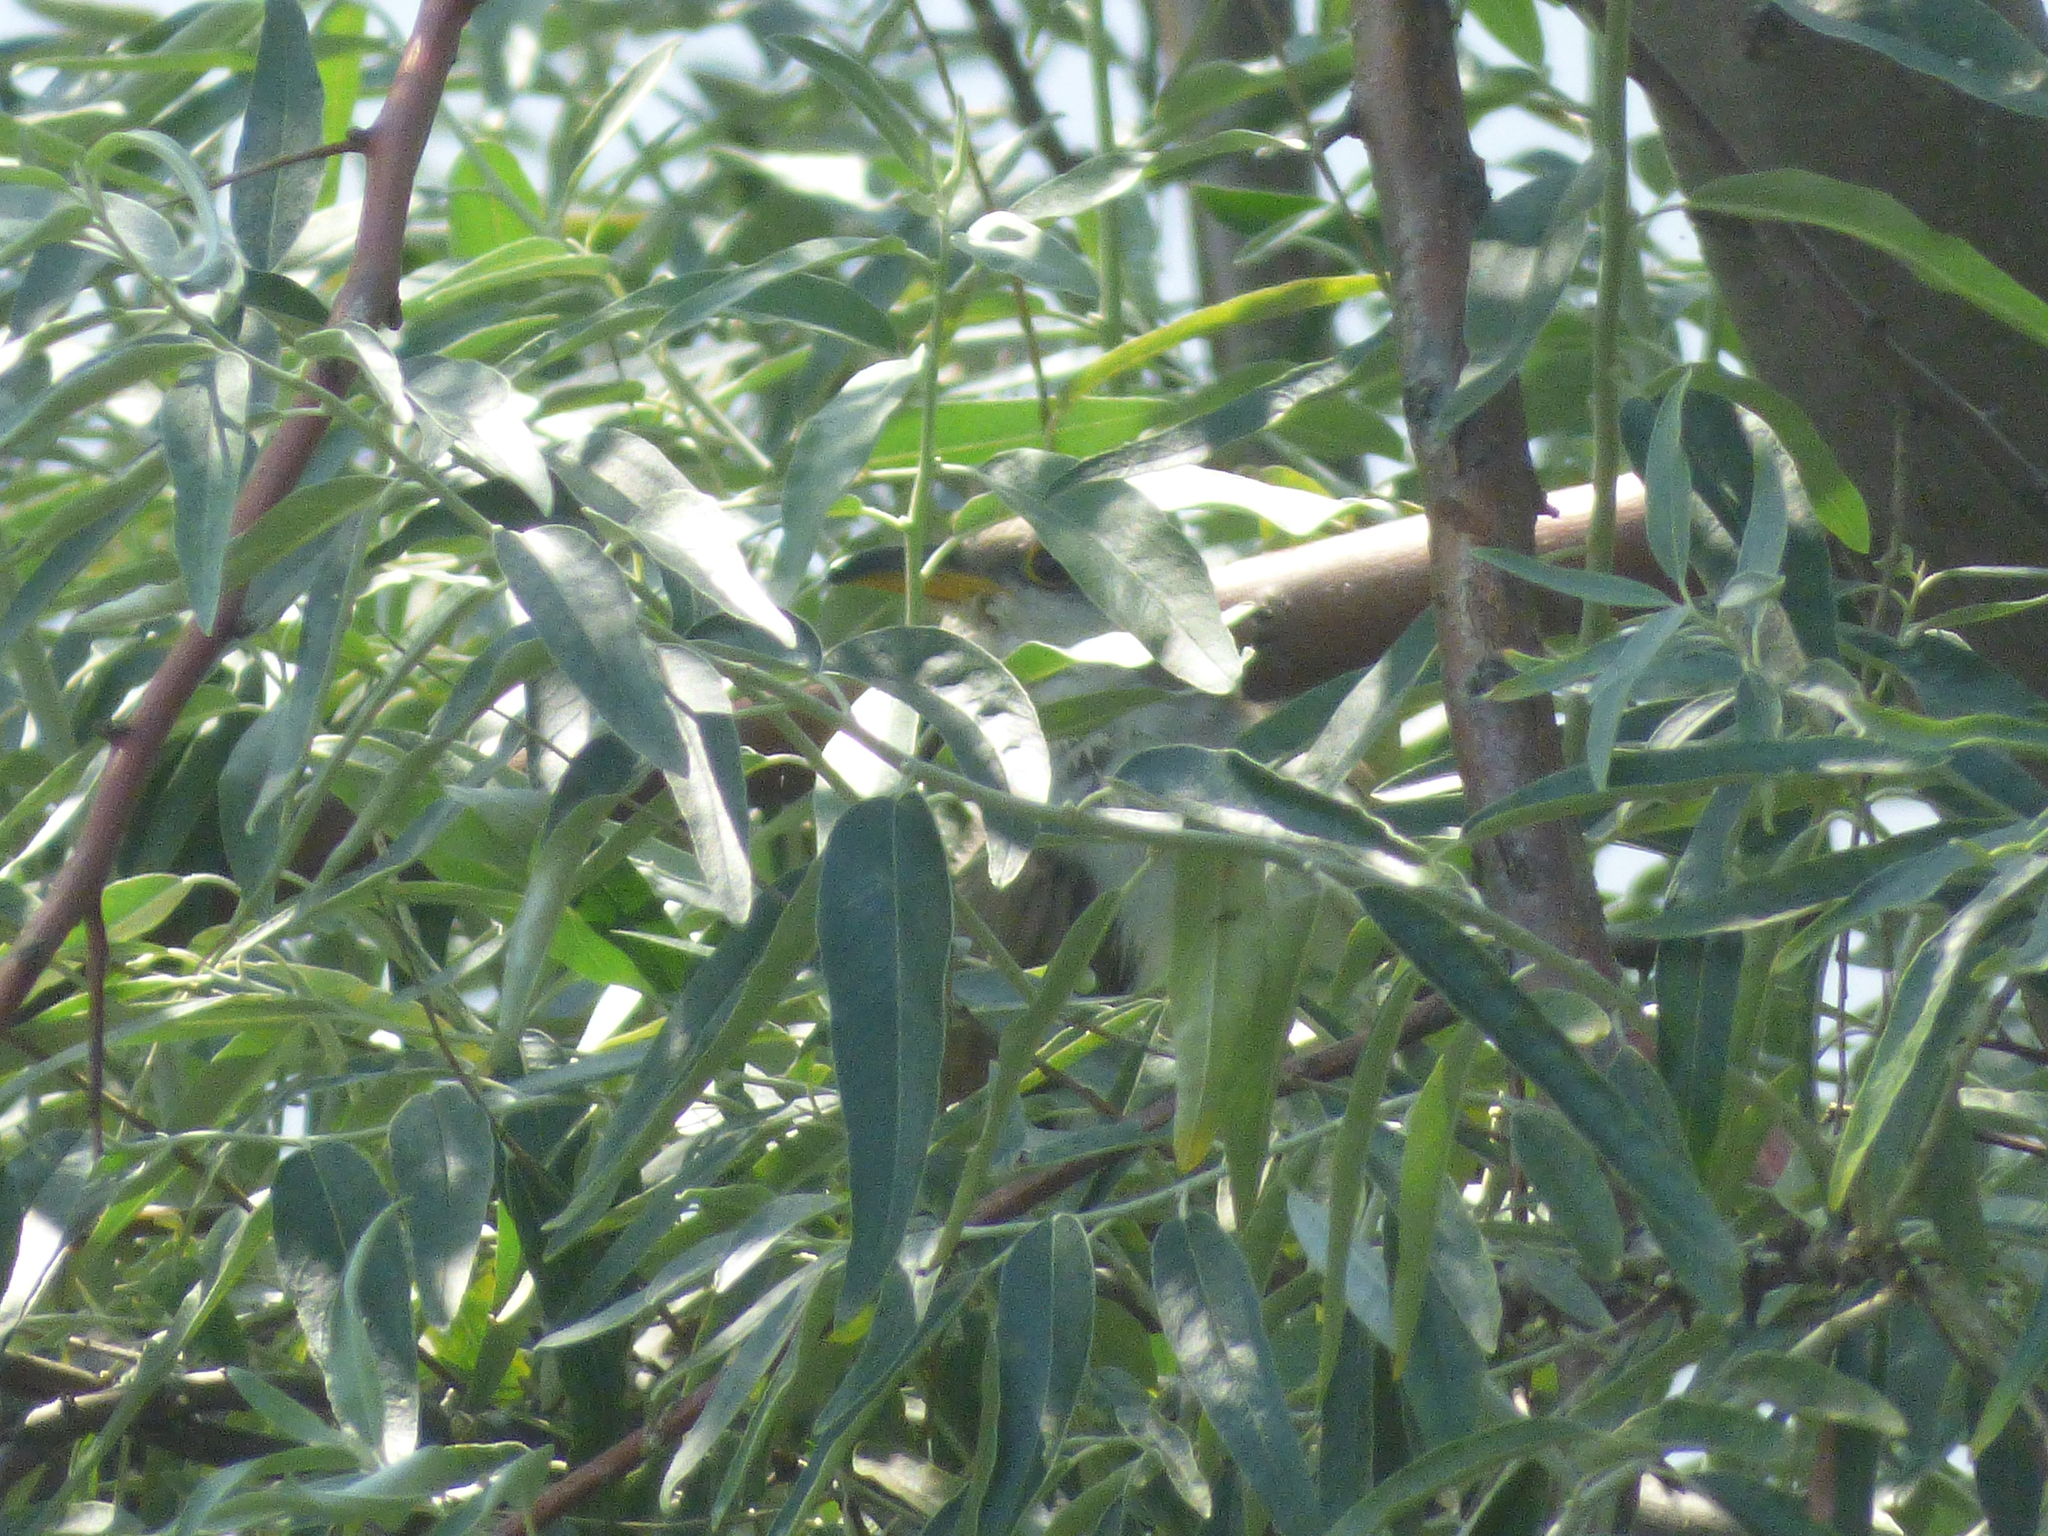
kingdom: Animalia
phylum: Chordata
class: Aves
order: Cuculiformes
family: Cuculidae
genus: Coccyzus
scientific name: Coccyzus americanus
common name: Yellow-billed cuckoo
